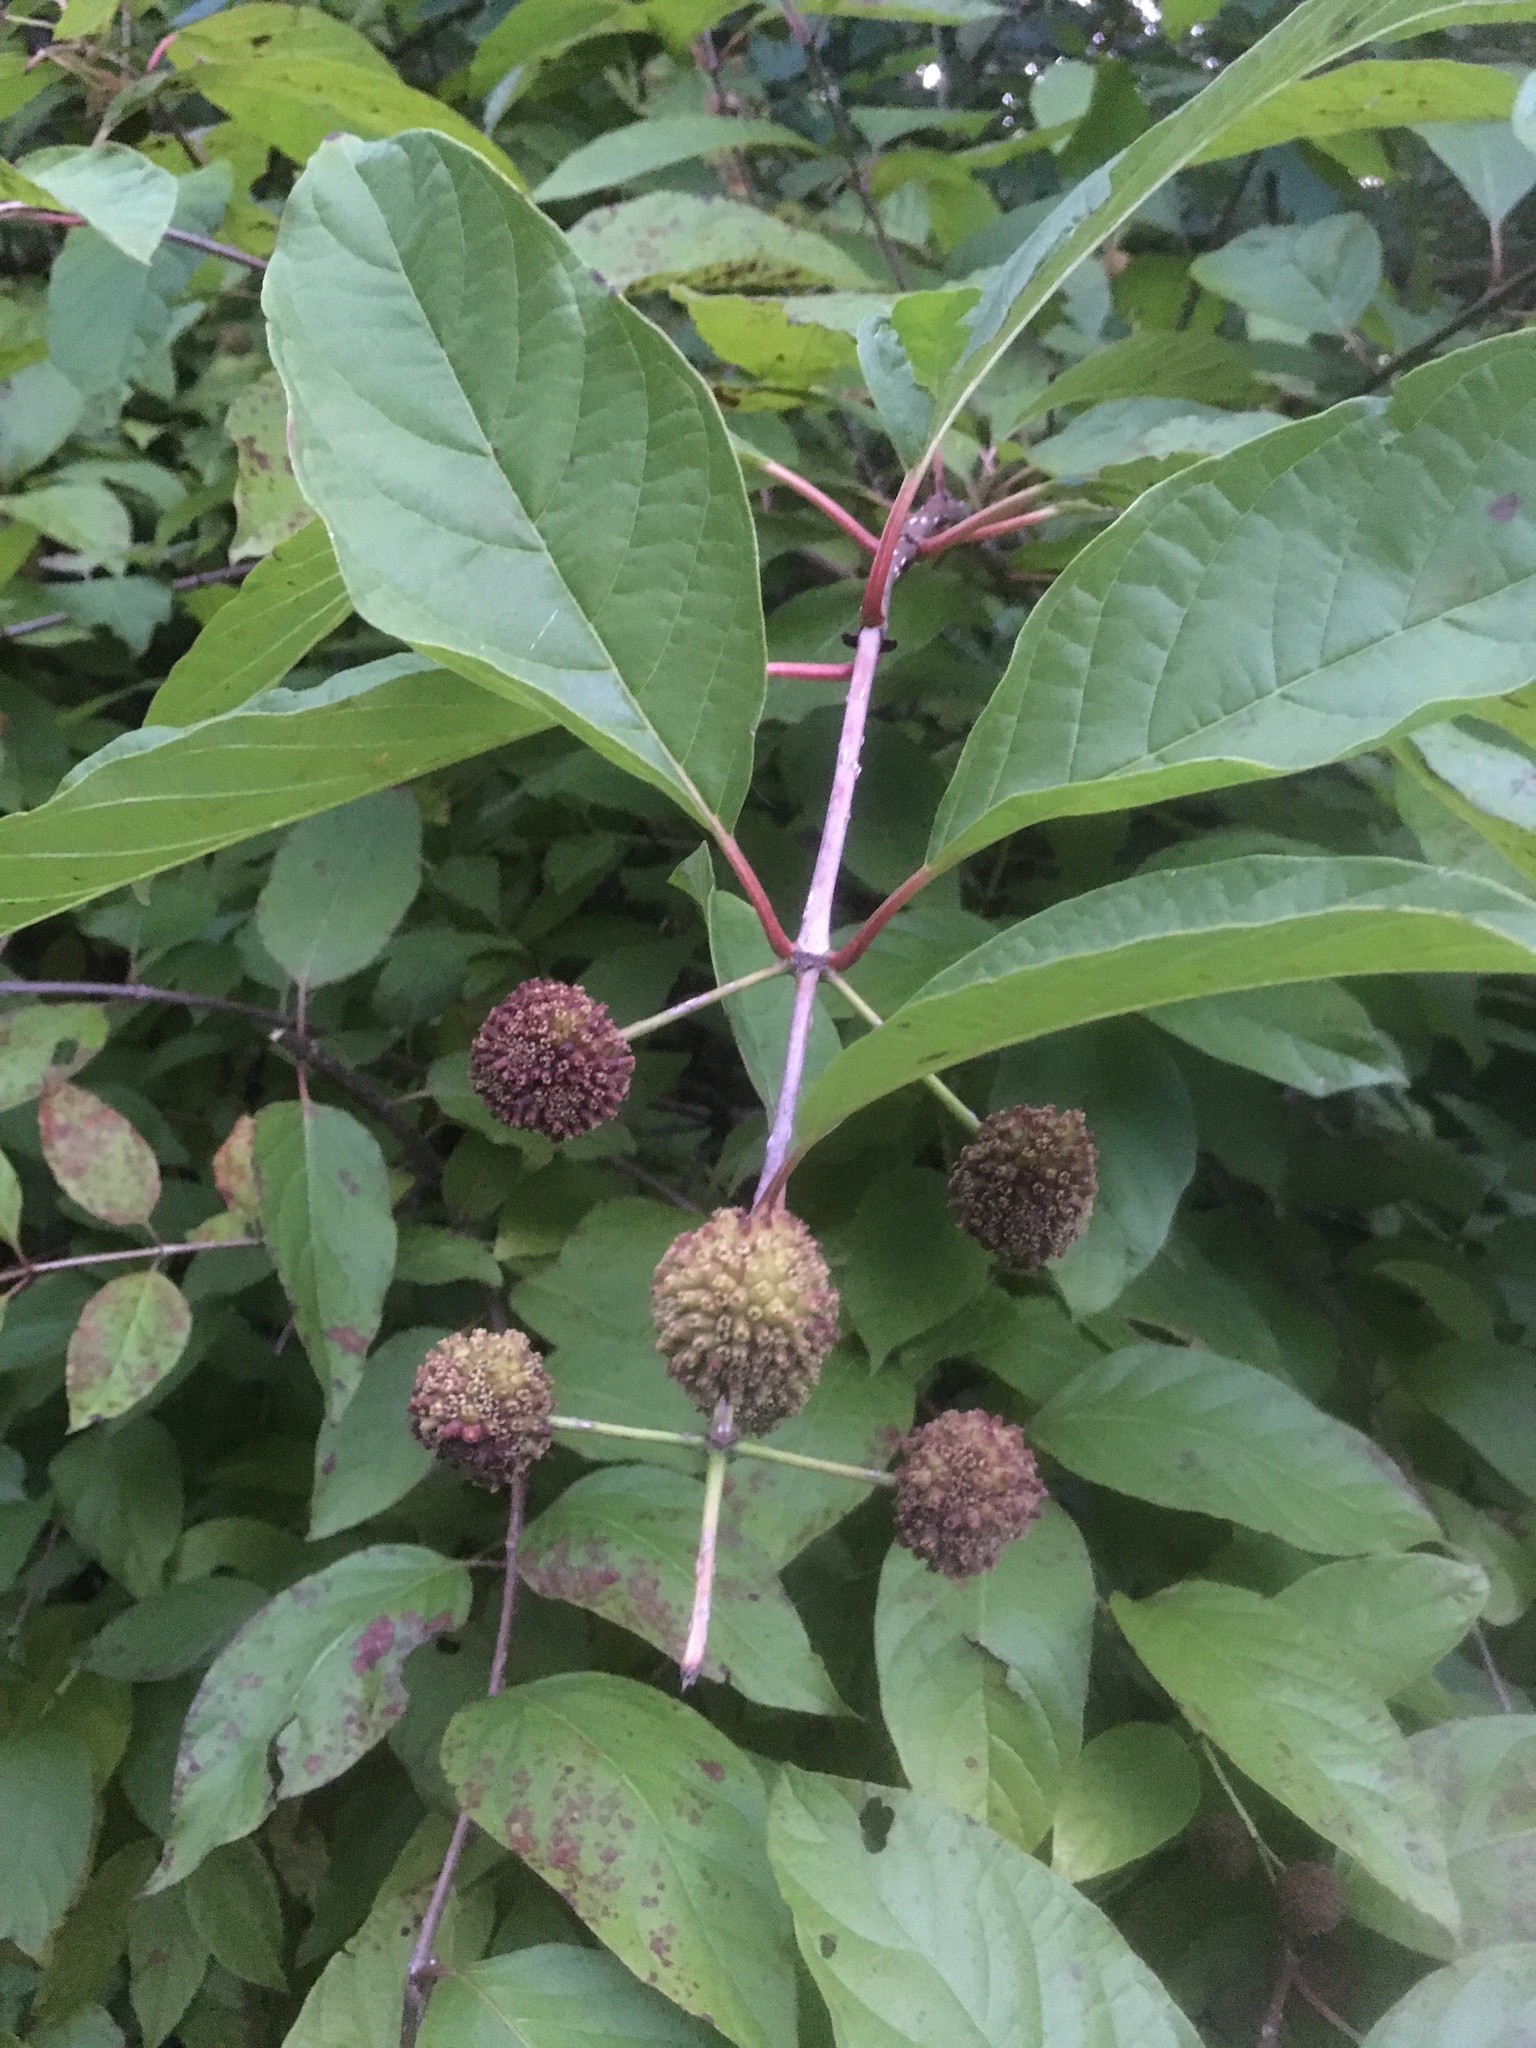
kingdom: Plantae
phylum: Tracheophyta
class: Magnoliopsida
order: Gentianales
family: Rubiaceae
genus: Cephalanthus
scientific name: Cephalanthus occidentalis
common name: Button-willow
